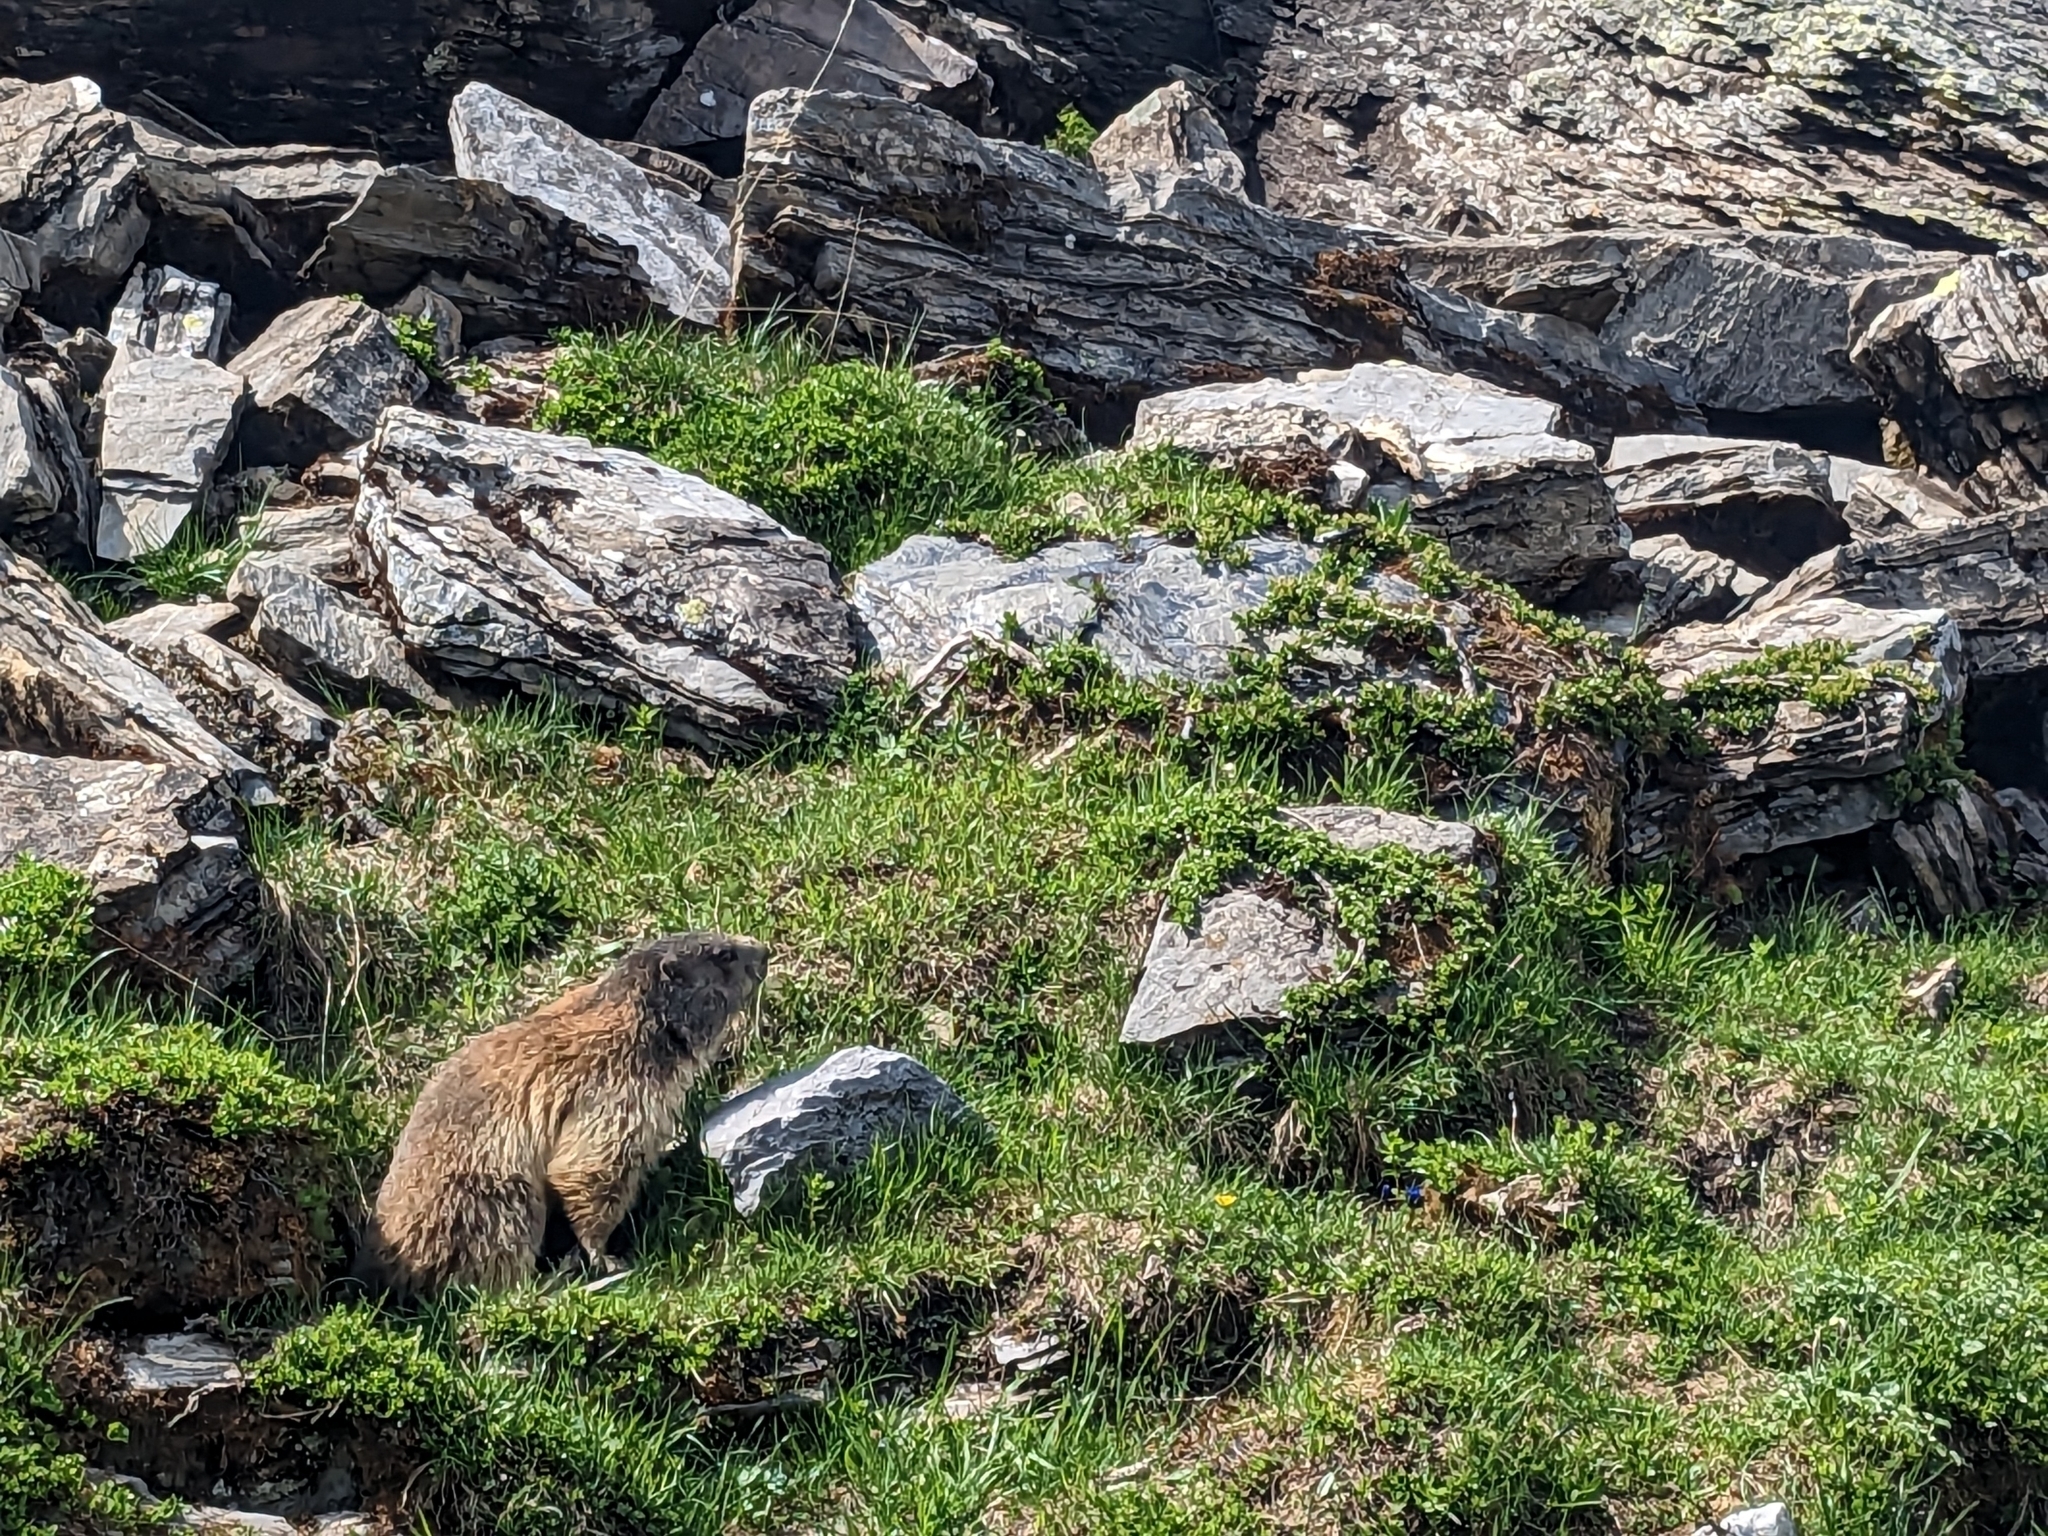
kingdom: Animalia
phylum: Chordata
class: Mammalia
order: Rodentia
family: Sciuridae
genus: Marmota
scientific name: Marmota marmota
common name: Alpine marmot
